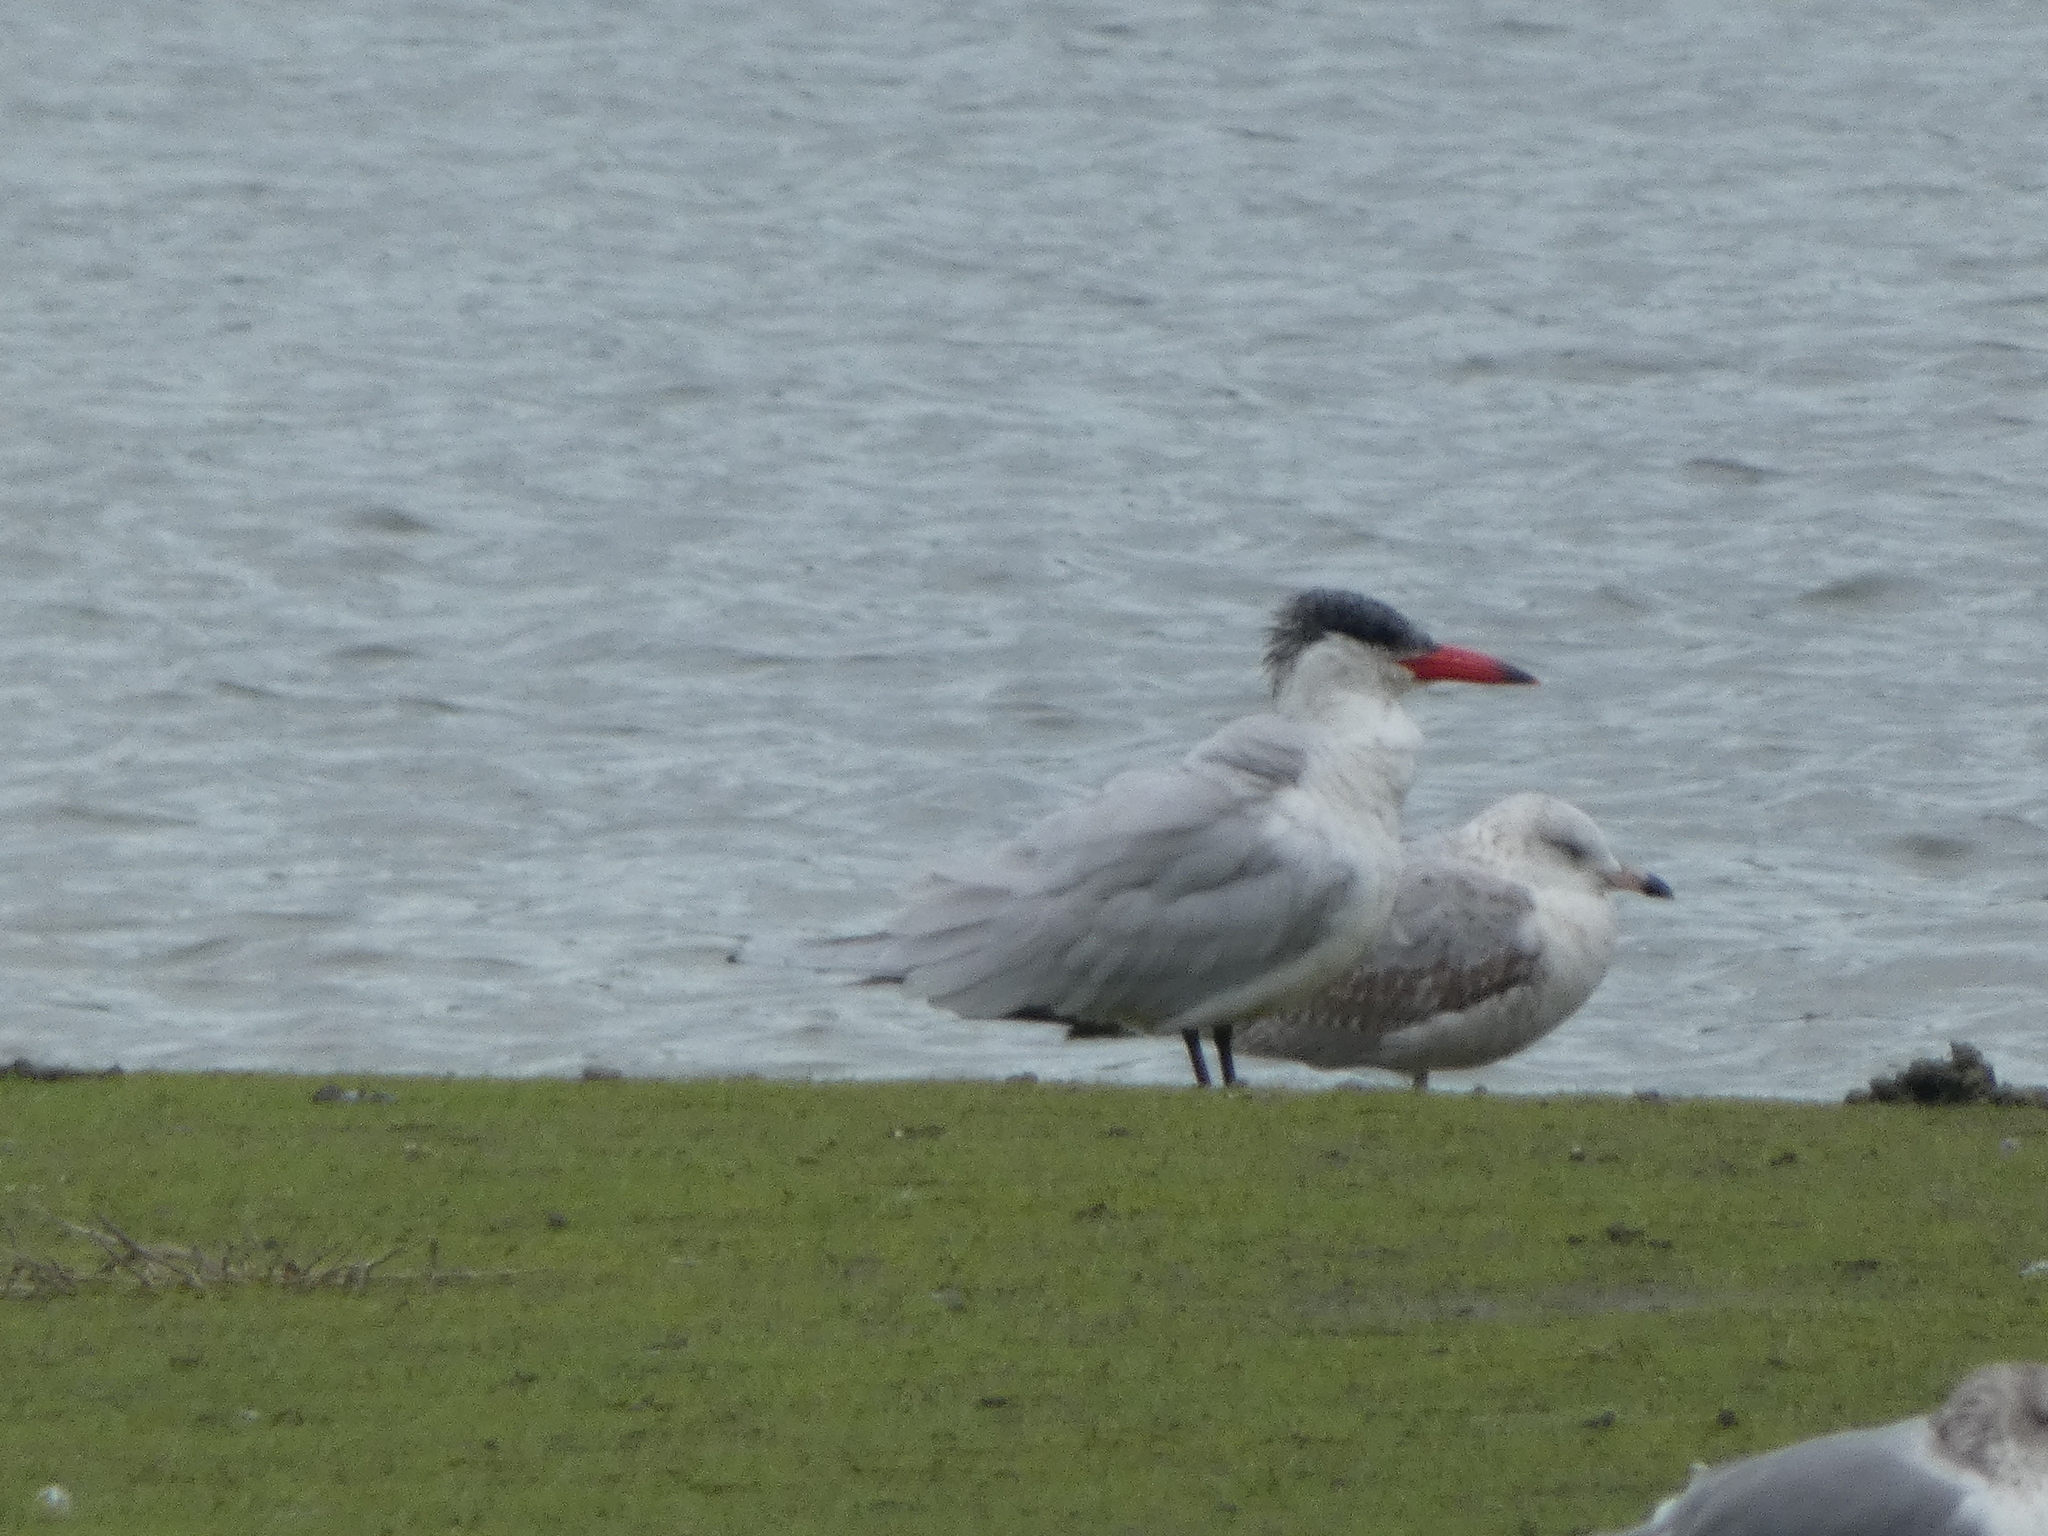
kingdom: Animalia
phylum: Chordata
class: Aves
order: Charadriiformes
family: Laridae
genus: Hydroprogne
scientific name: Hydroprogne caspia
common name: Caspian tern
